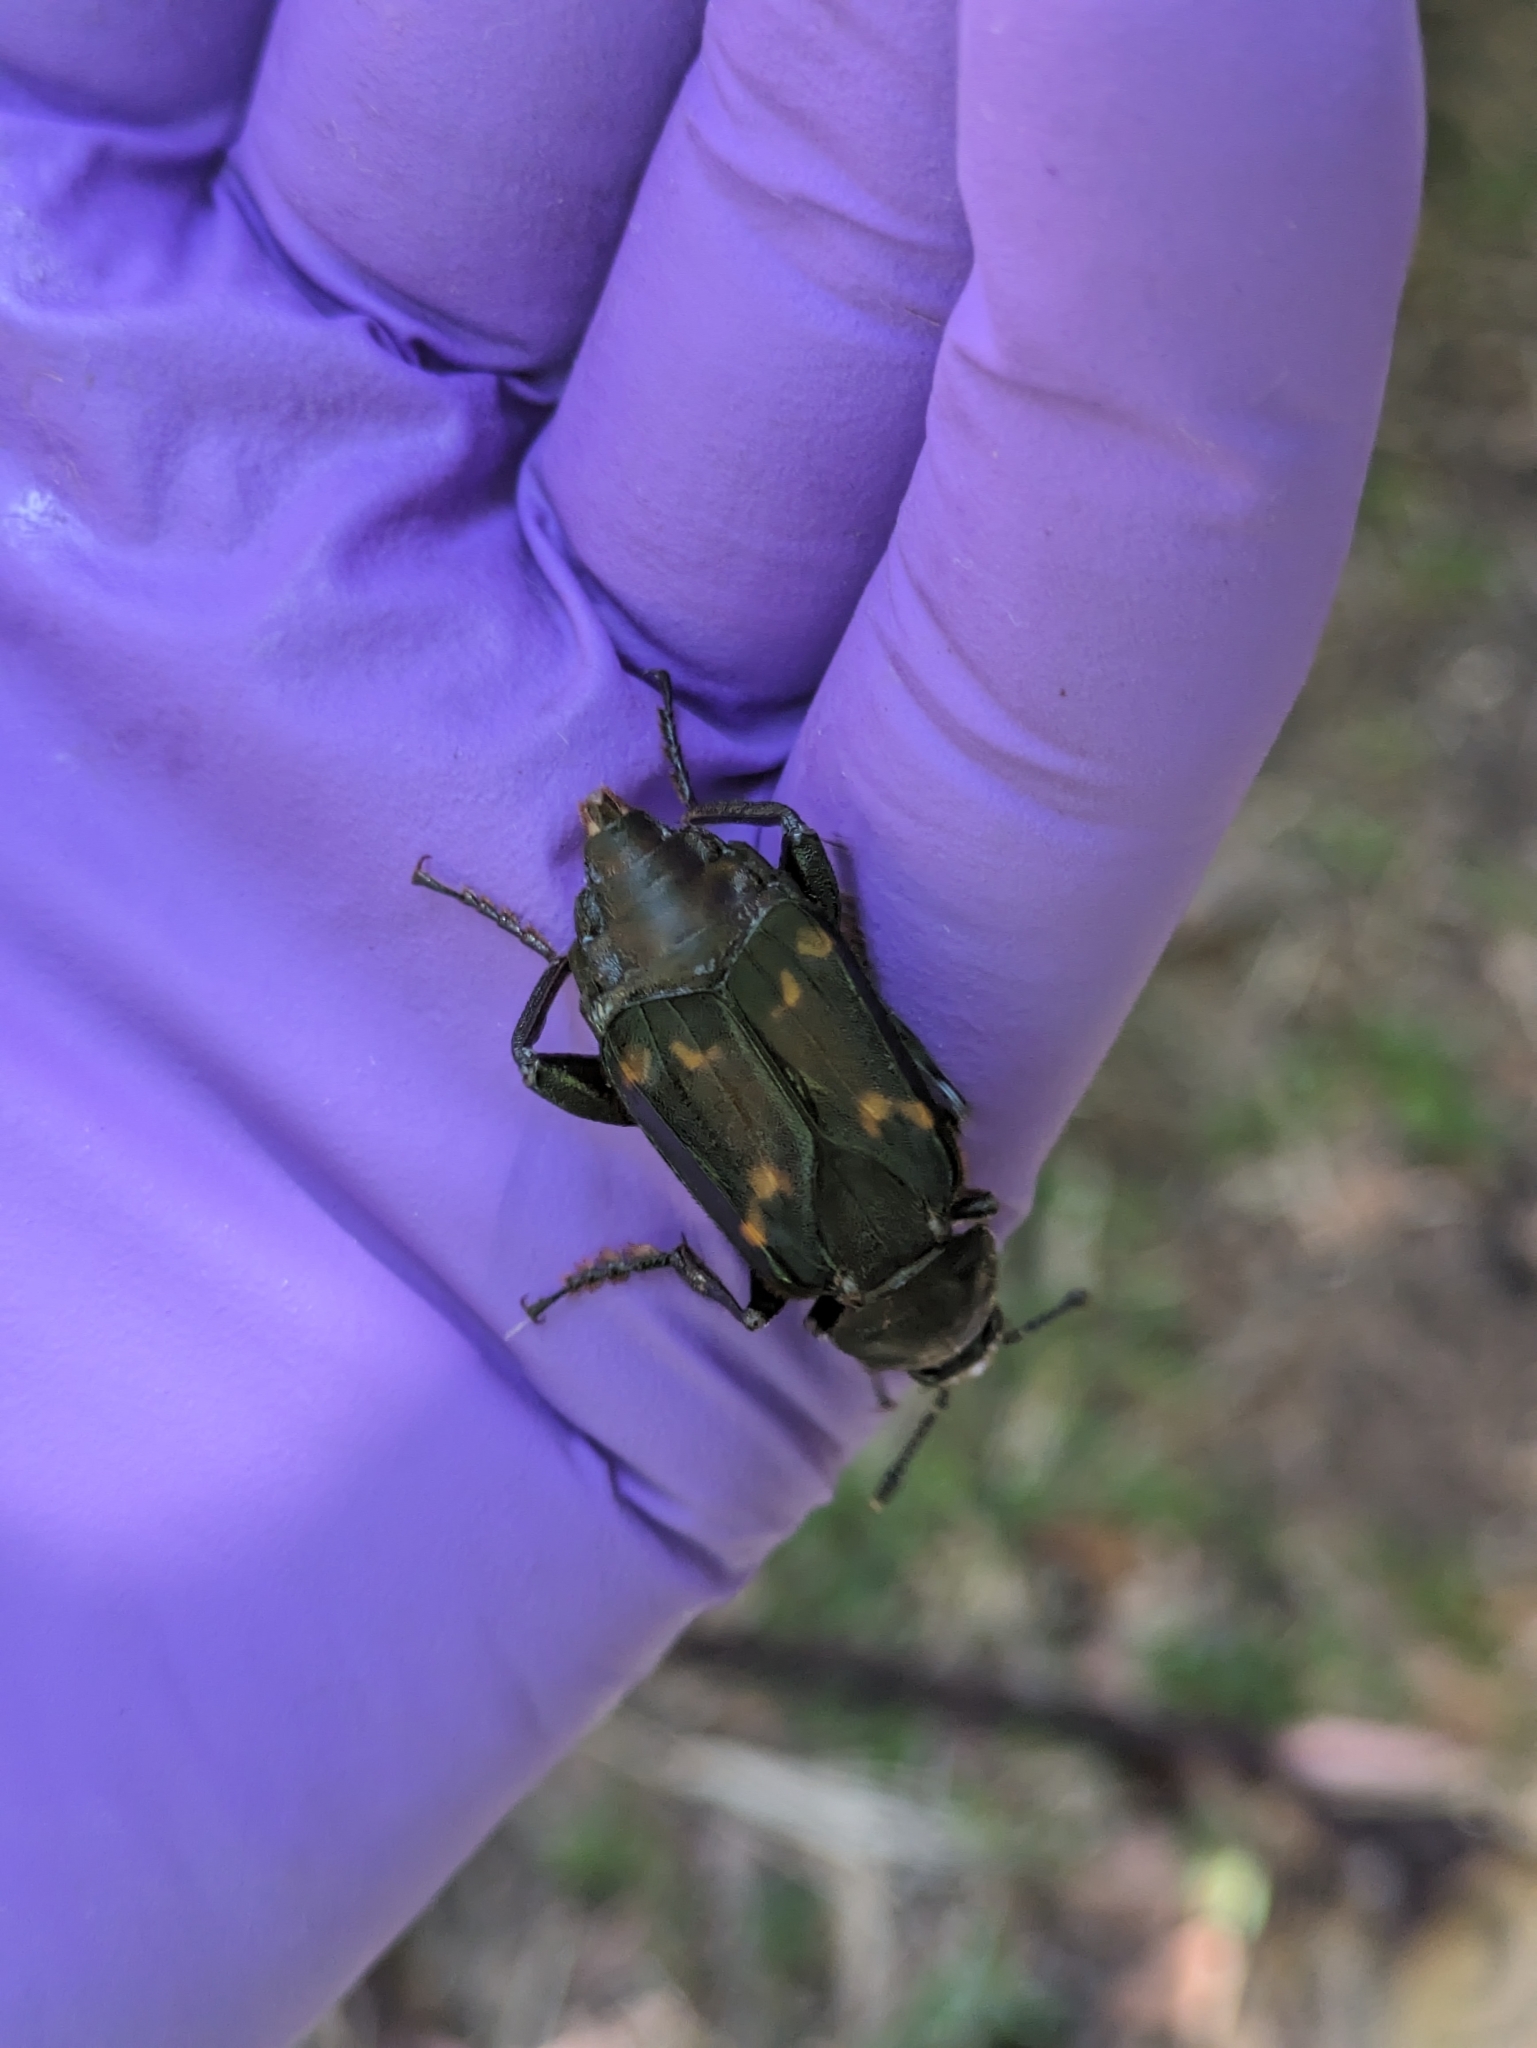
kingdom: Animalia
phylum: Arthropoda
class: Insecta
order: Coleoptera
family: Staphylinidae
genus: Diamesus
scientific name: Diamesus osculans
